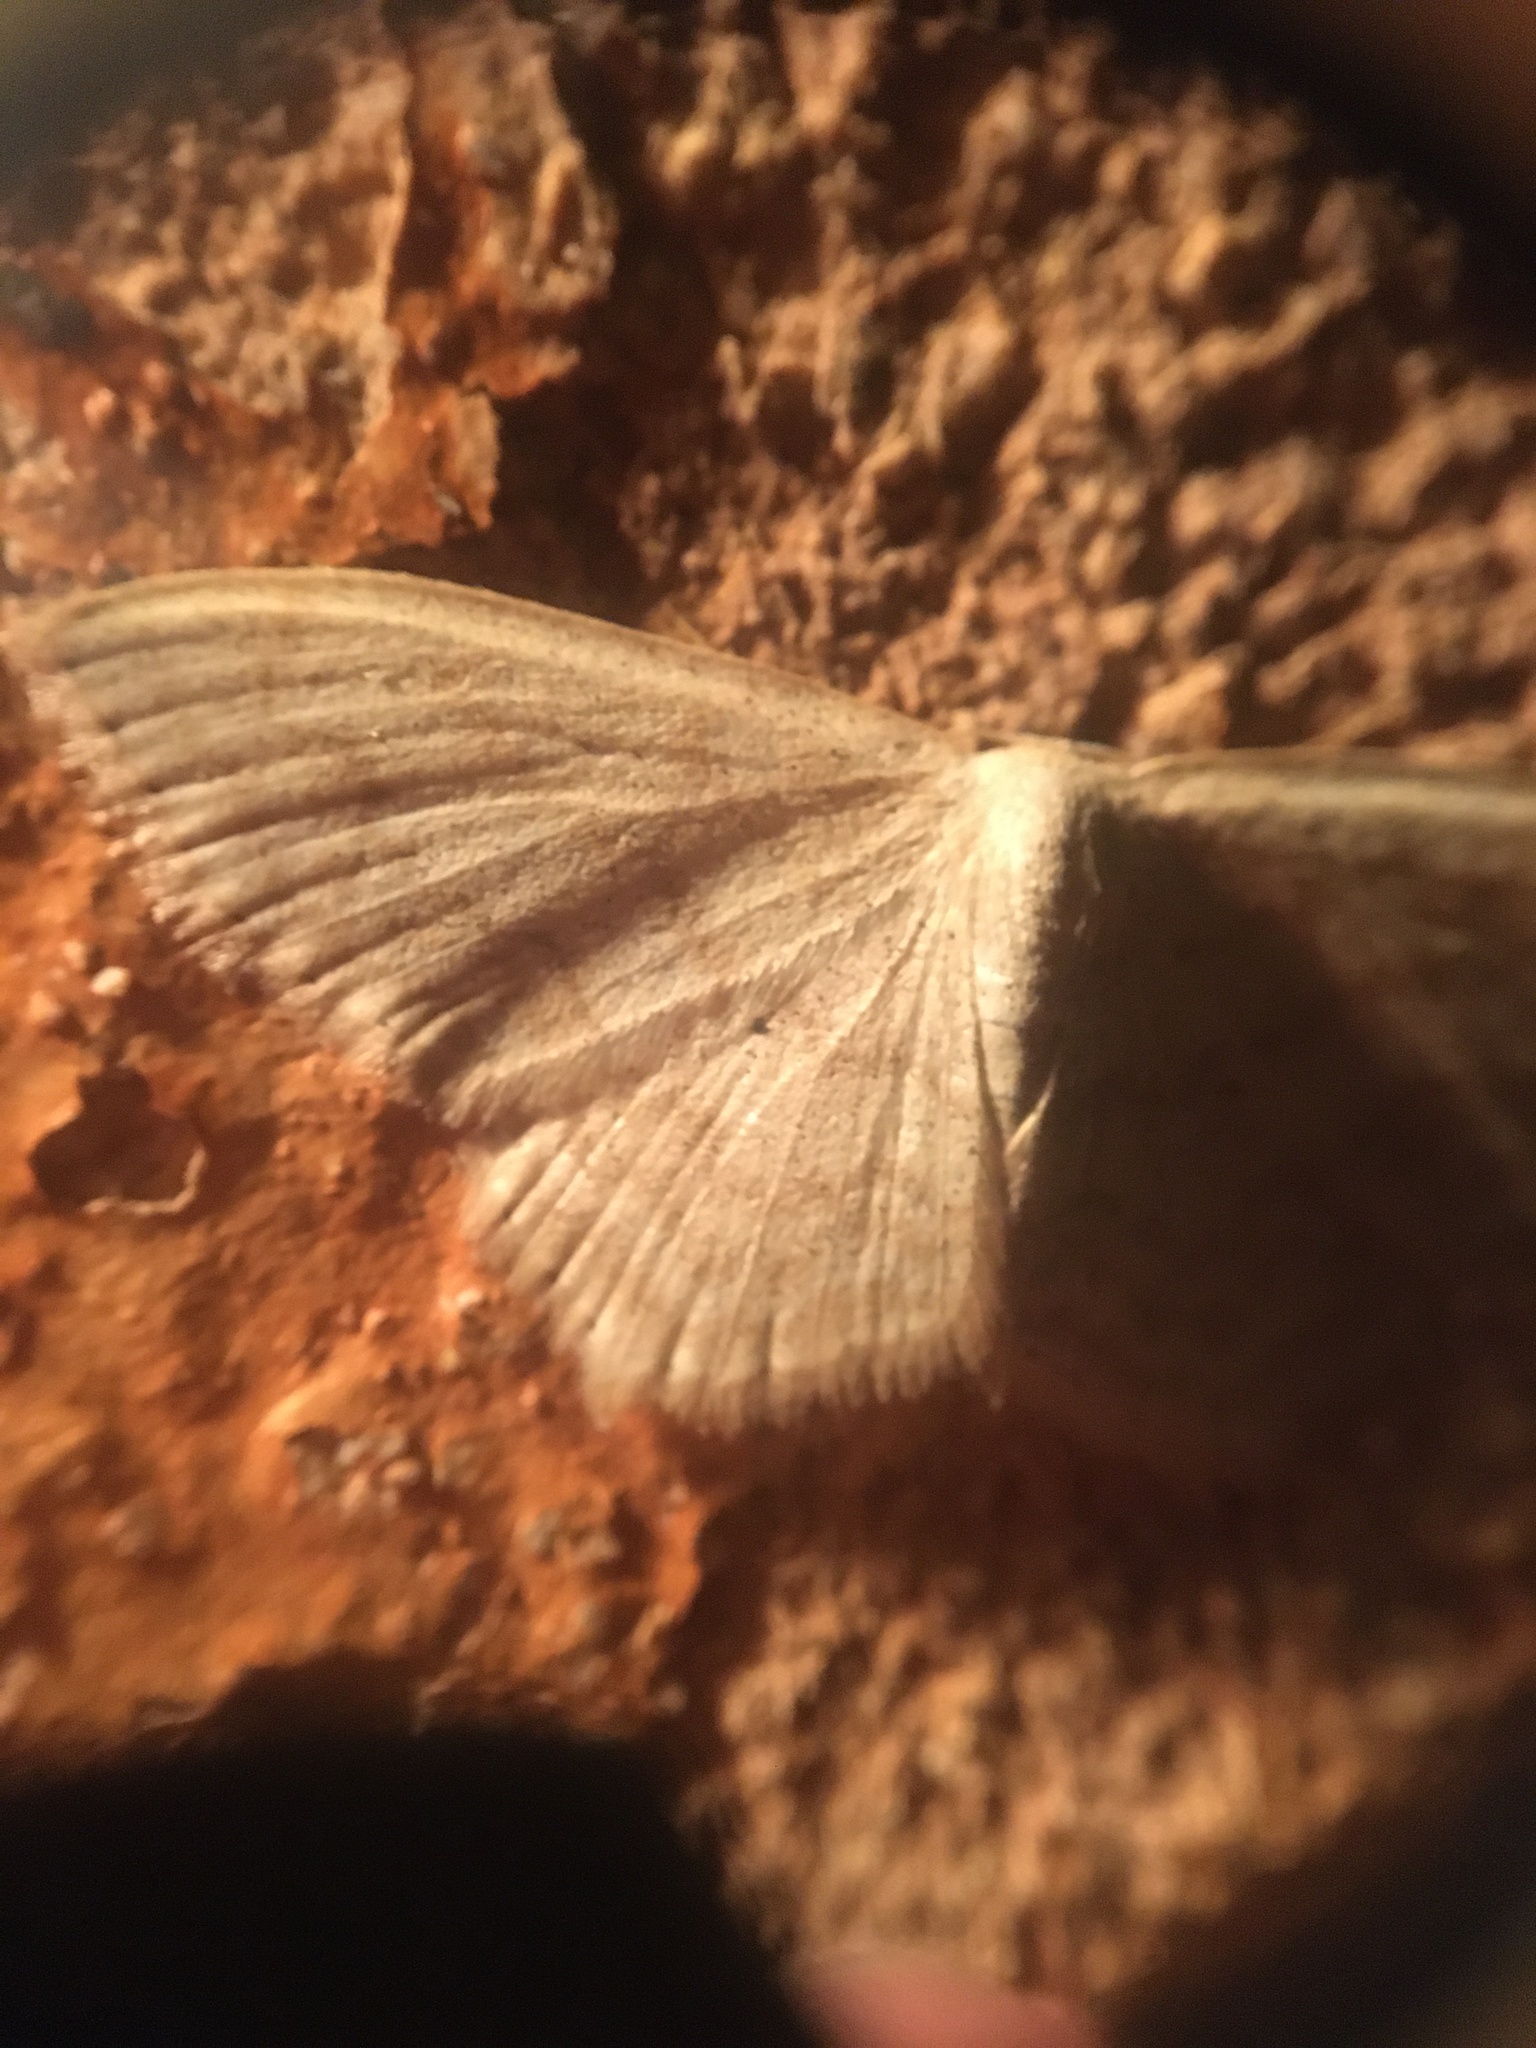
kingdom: Animalia
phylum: Arthropoda
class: Insecta
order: Lepidoptera
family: Geometridae
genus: Scopula
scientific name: Scopula limboundata
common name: Large lace border
